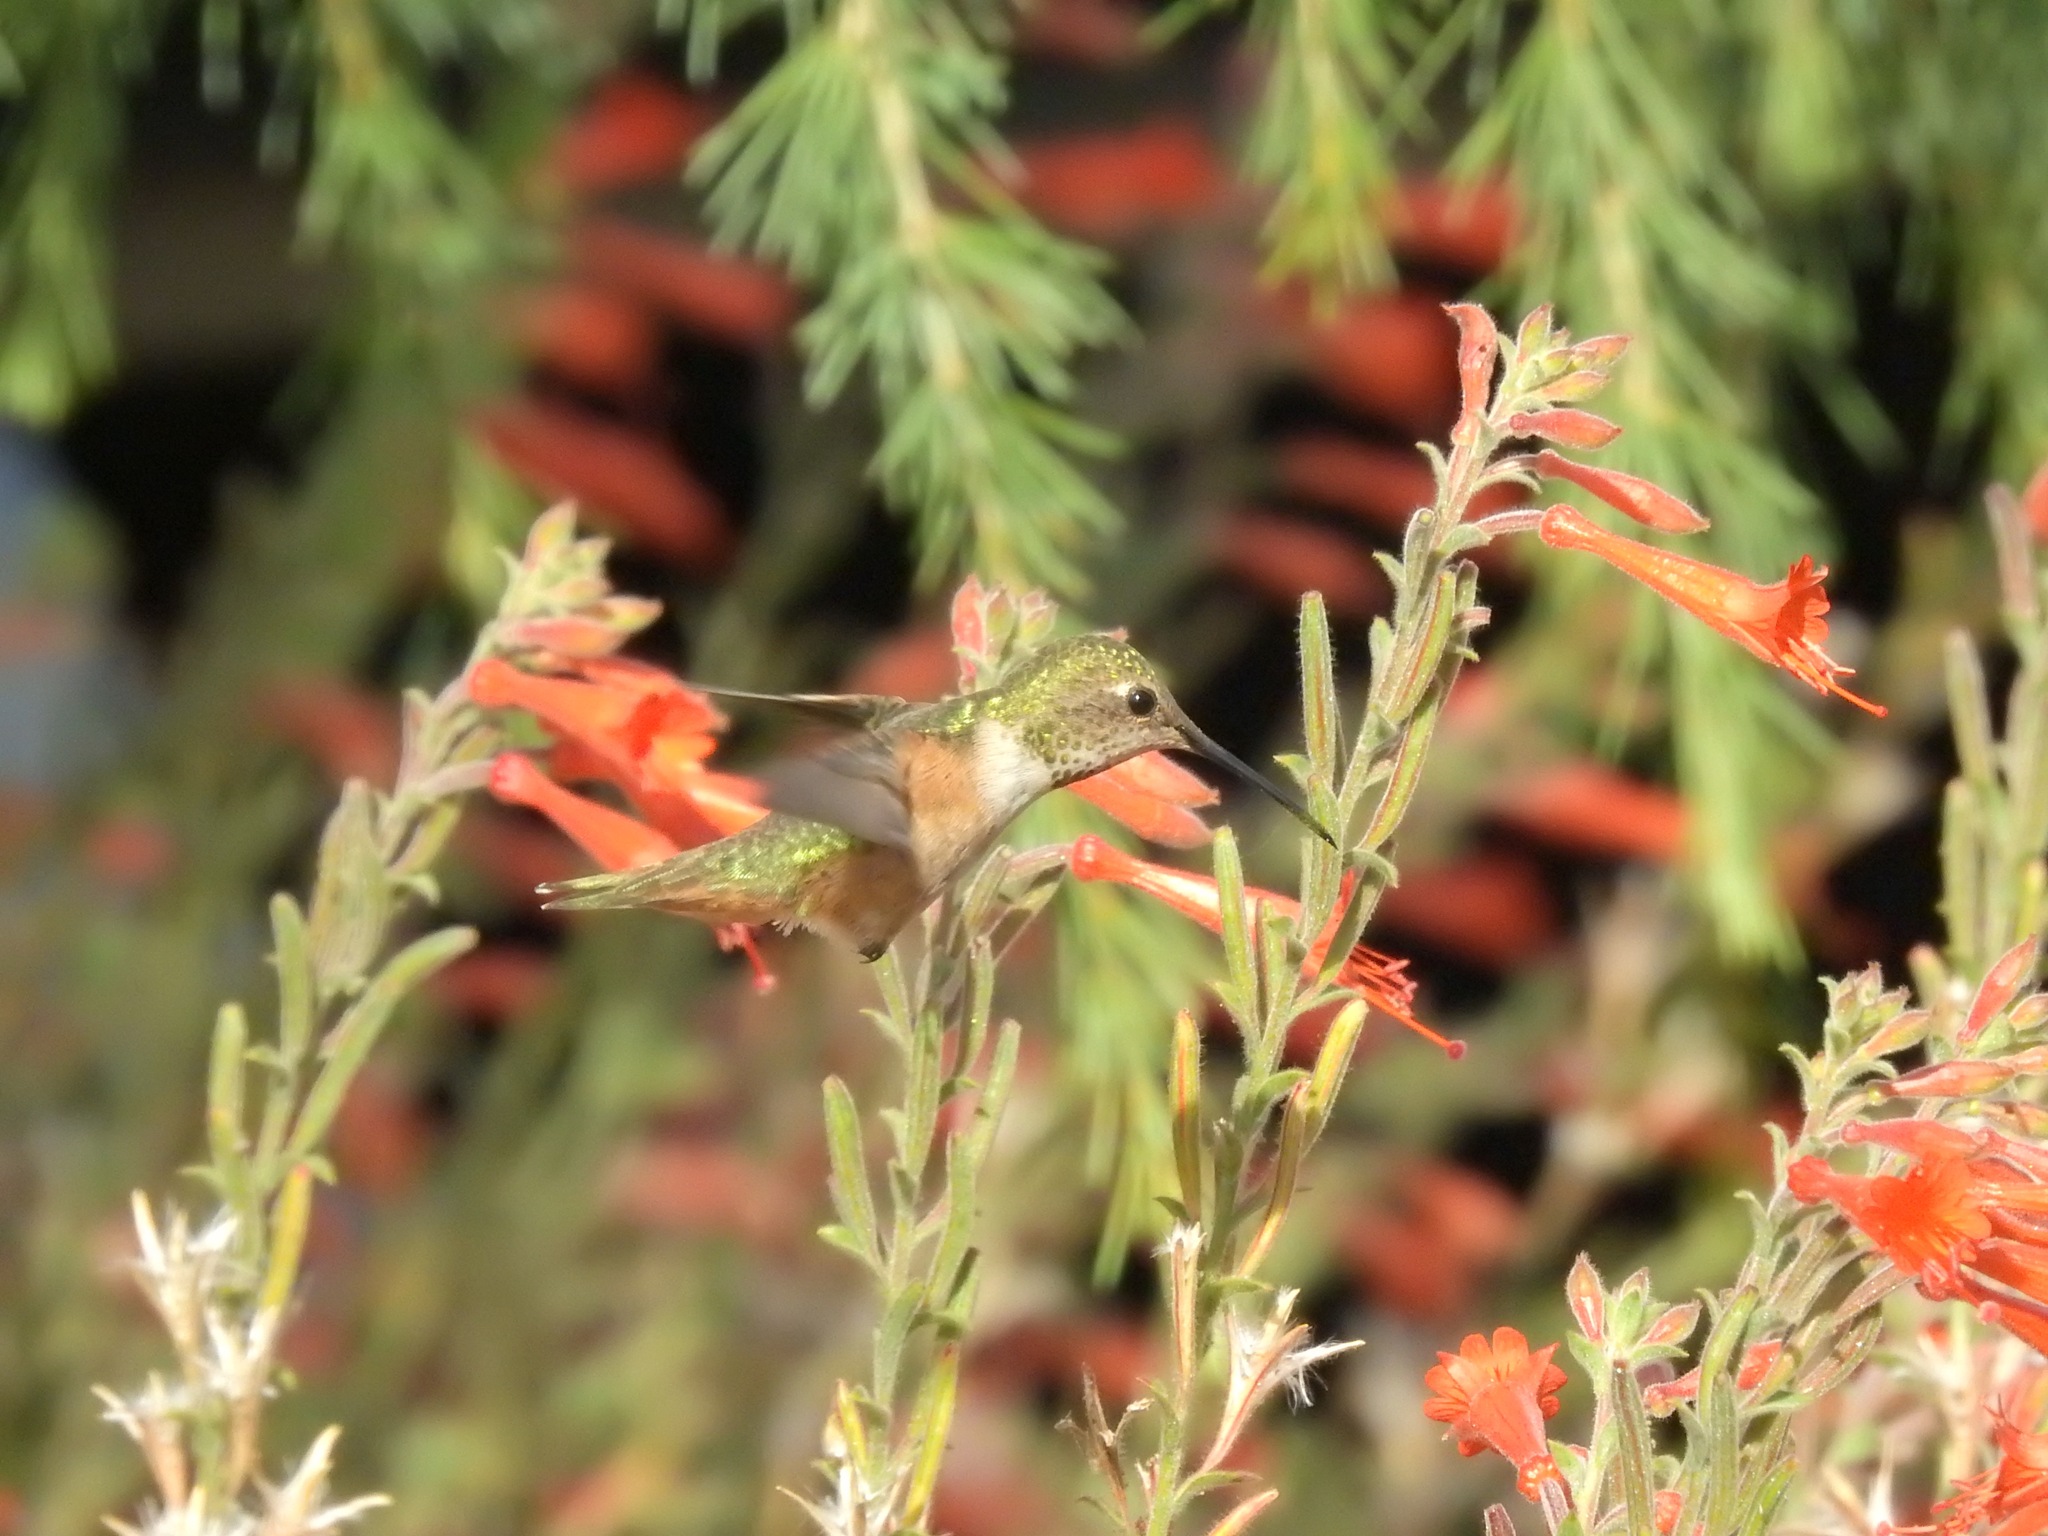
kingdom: Animalia
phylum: Chordata
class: Aves
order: Apodiformes
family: Trochilidae
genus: Selasphorus
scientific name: Selasphorus
